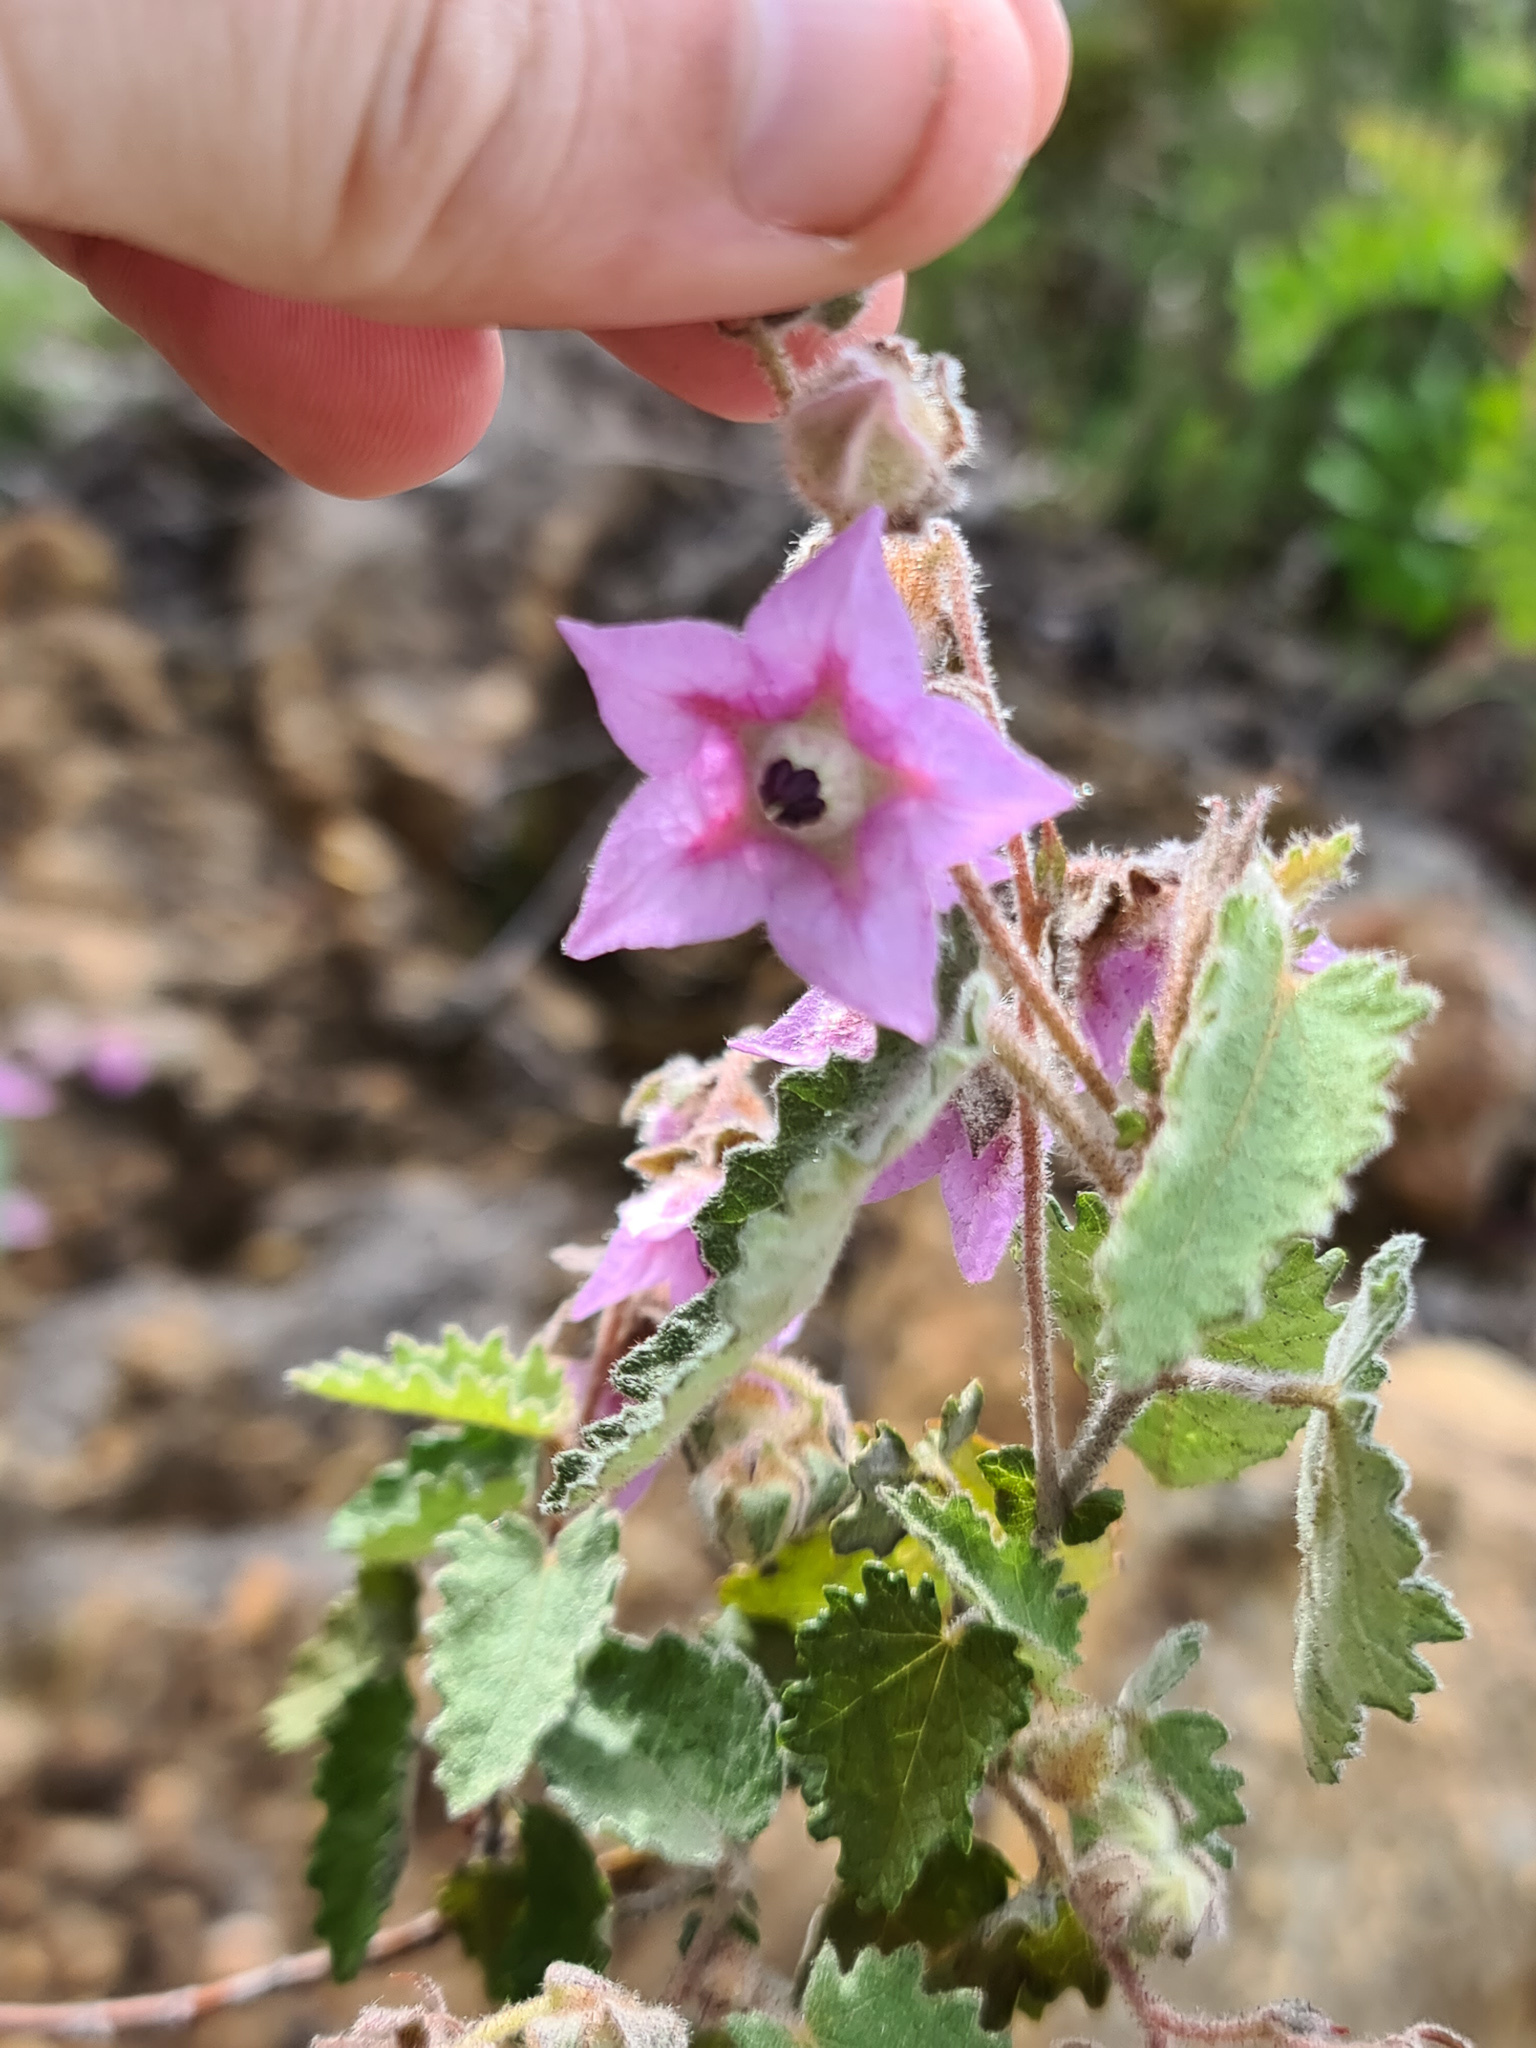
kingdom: Plantae
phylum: Tracheophyta
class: Magnoliopsida
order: Malvales
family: Malvaceae
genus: Thomasia
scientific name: Thomasia macrocarpa
